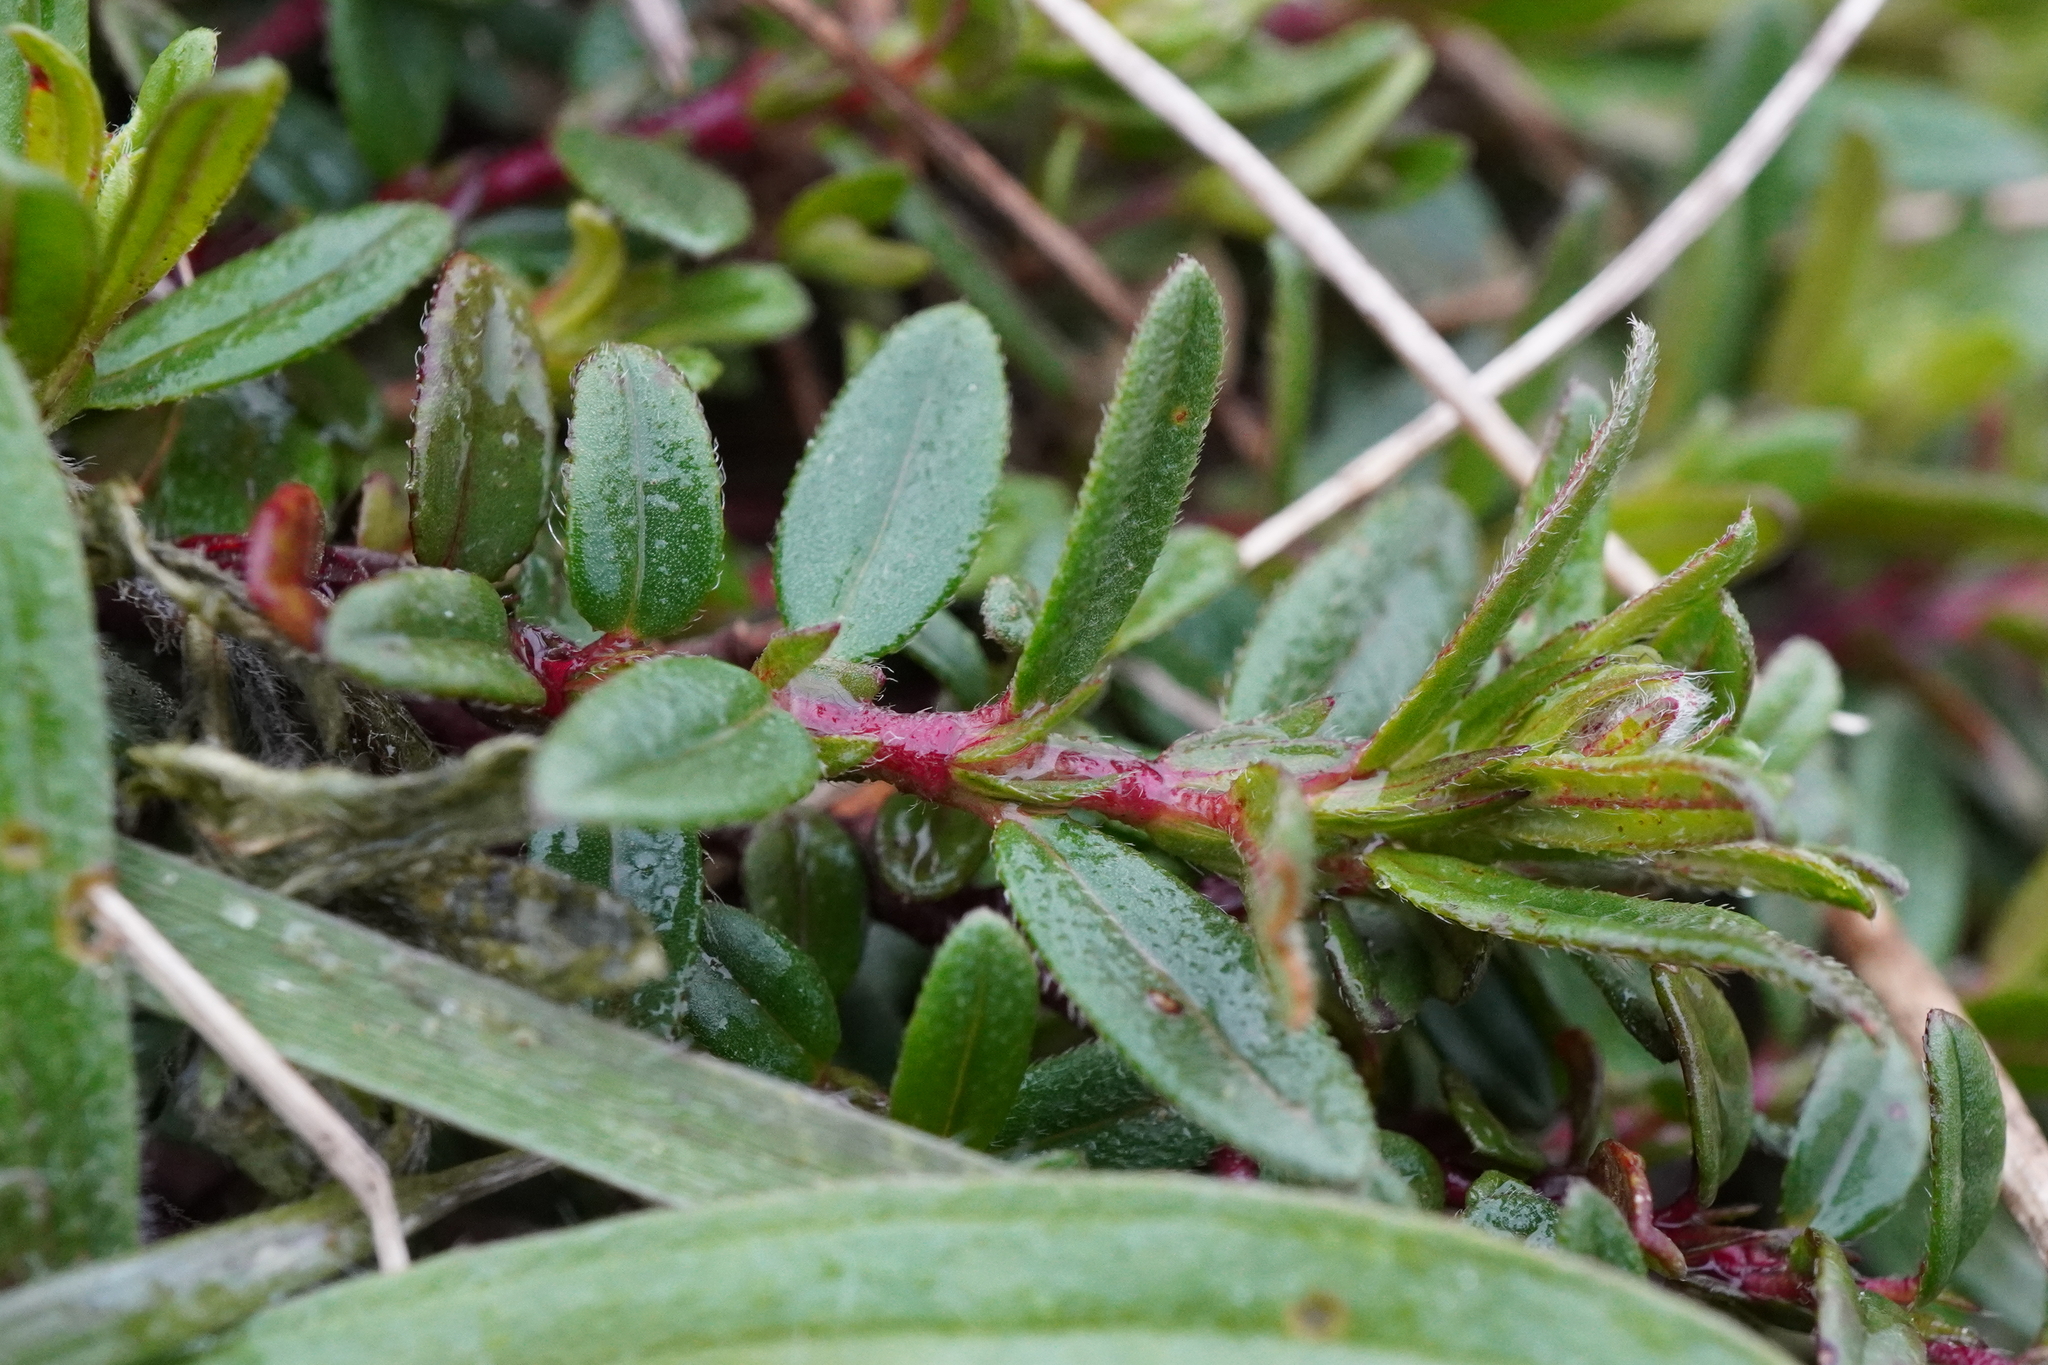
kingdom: Plantae
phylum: Tracheophyta
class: Magnoliopsida
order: Malvales
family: Cistaceae
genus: Helianthemum
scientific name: Helianthemum nummularium
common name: Common rock-rose
